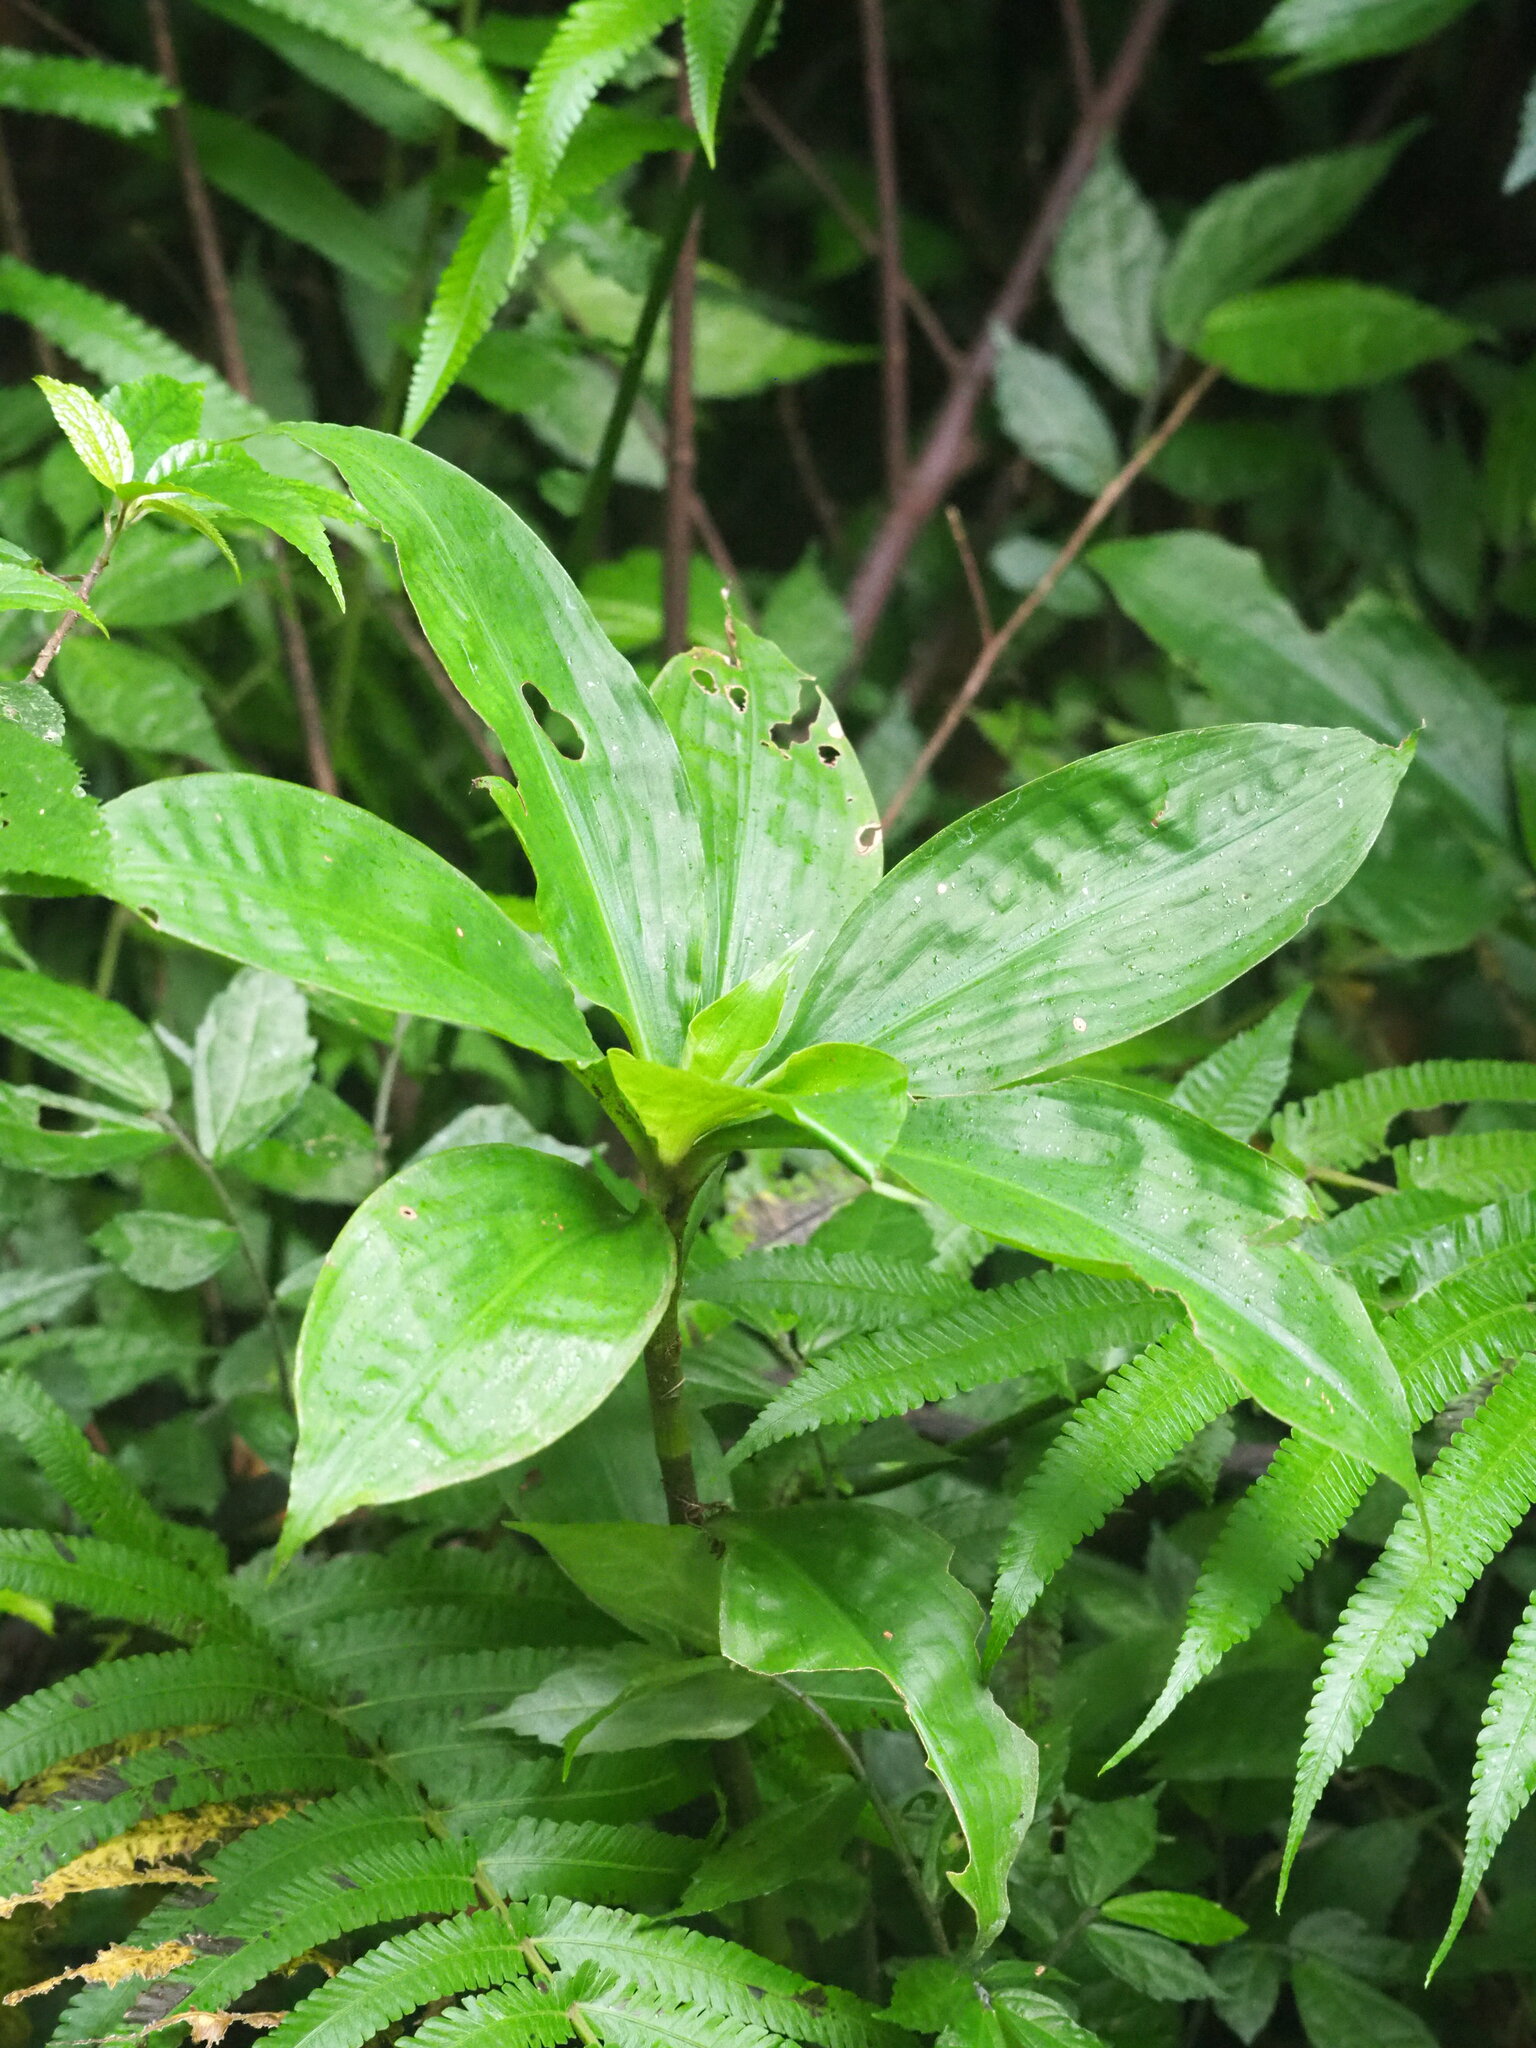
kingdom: Plantae
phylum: Tracheophyta
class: Liliopsida
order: Commelinales
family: Commelinaceae
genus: Amischotolype
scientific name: Amischotolype glabrata
